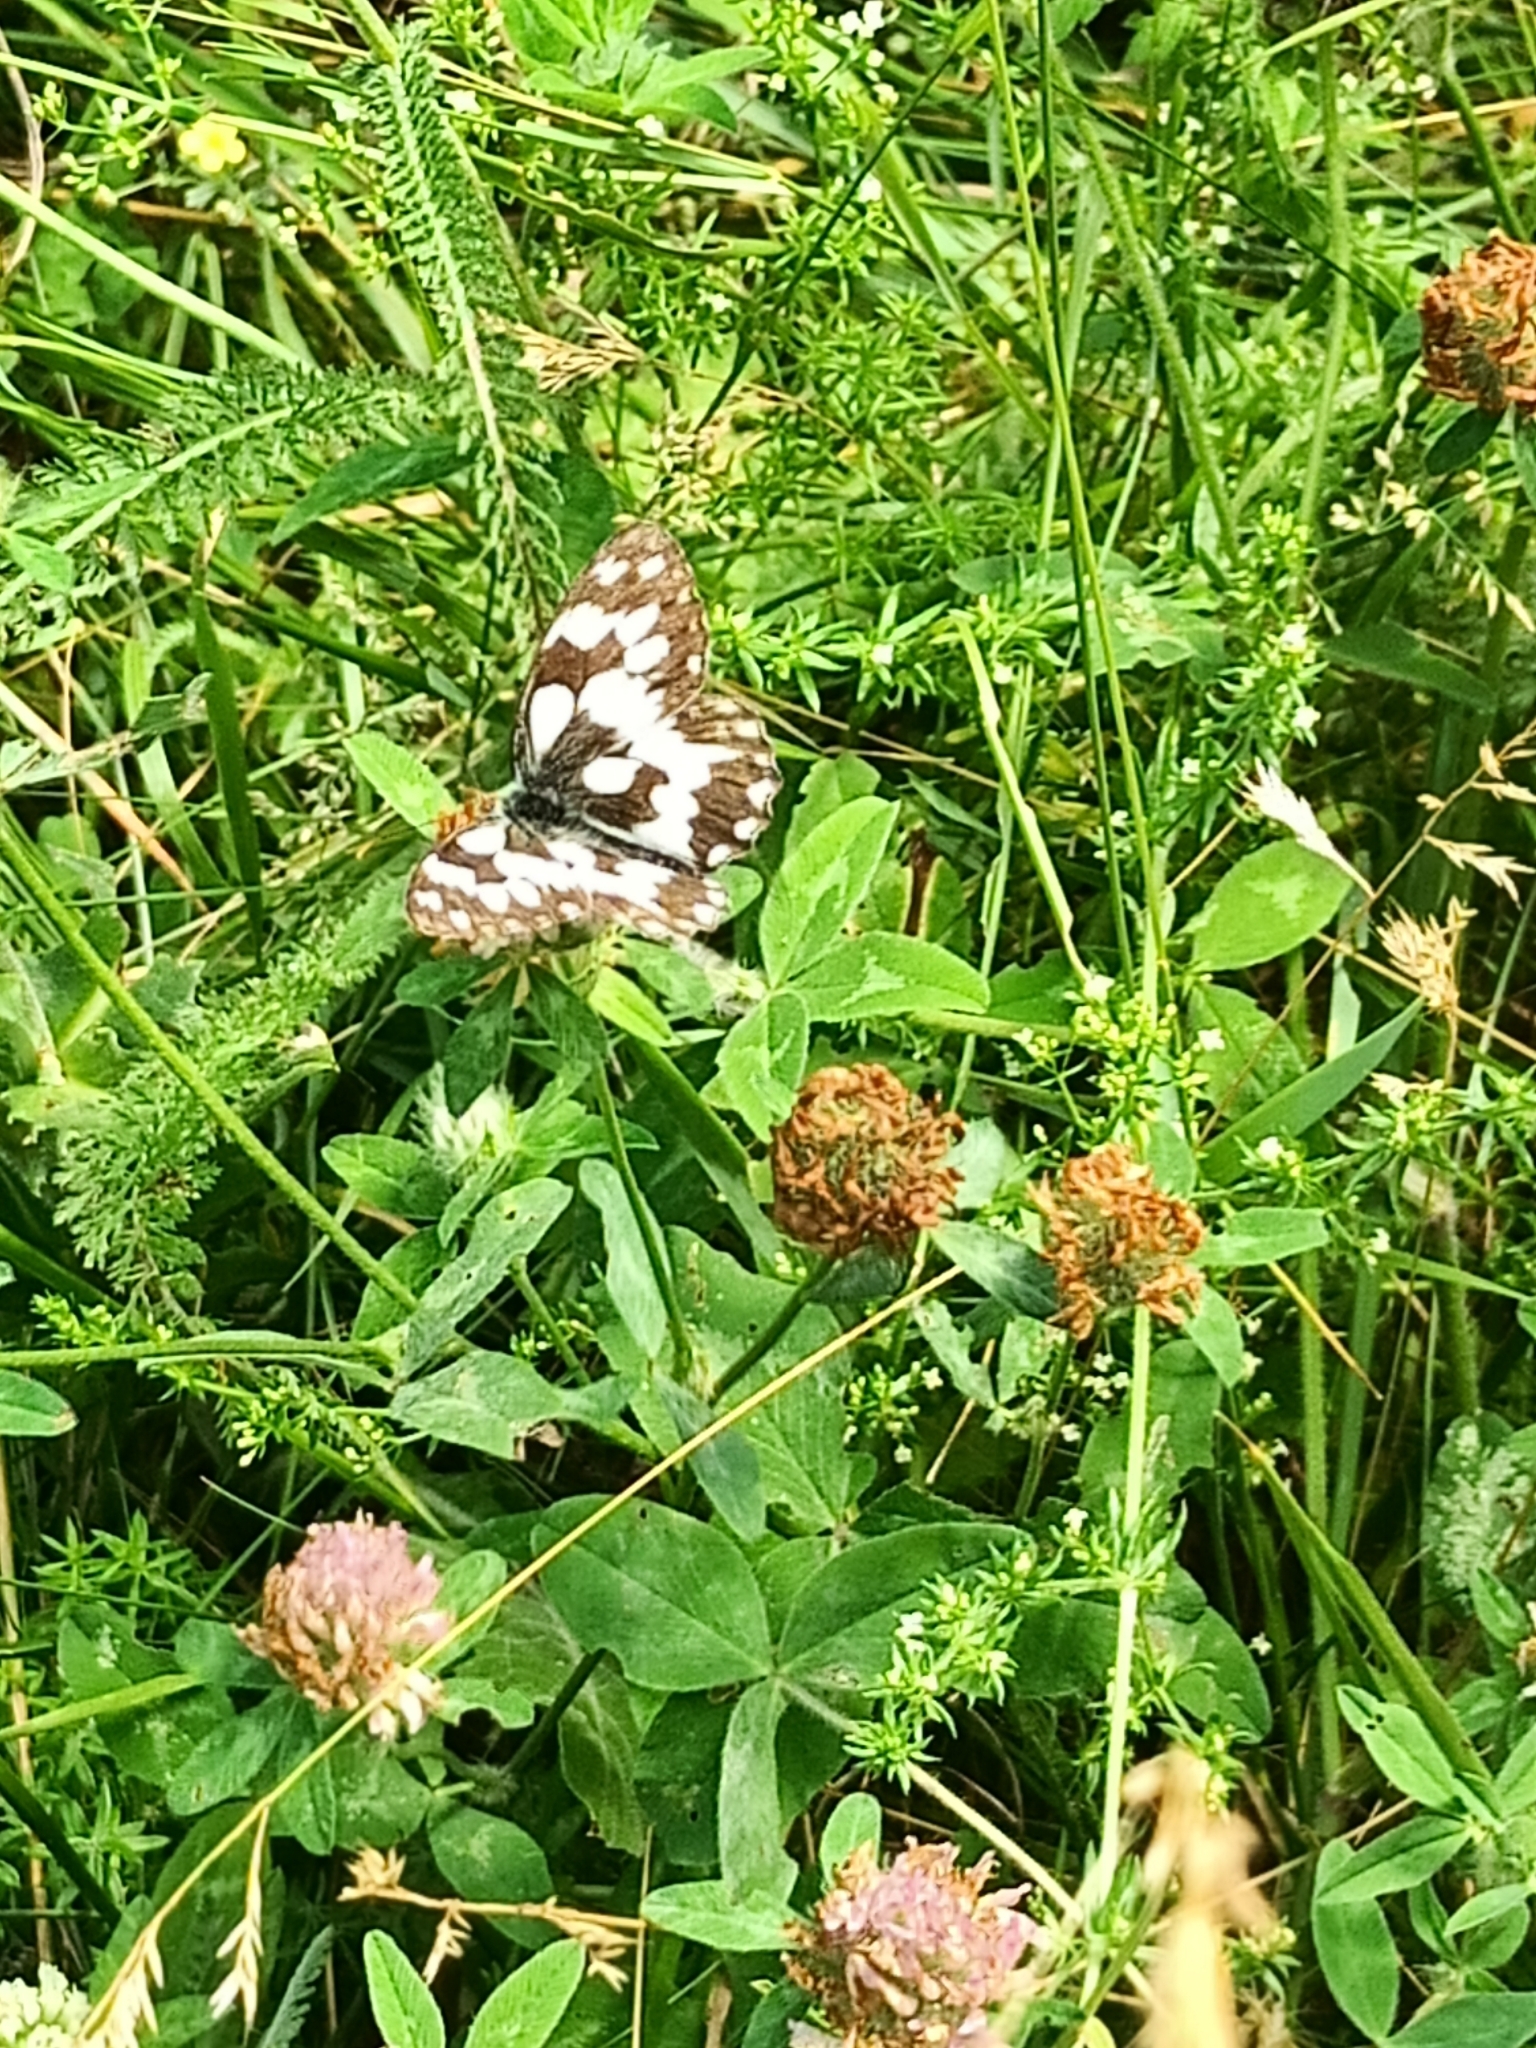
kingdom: Animalia
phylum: Arthropoda
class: Insecta
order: Lepidoptera
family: Nymphalidae
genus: Melanargia
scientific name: Melanargia galathea
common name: Marbled white
